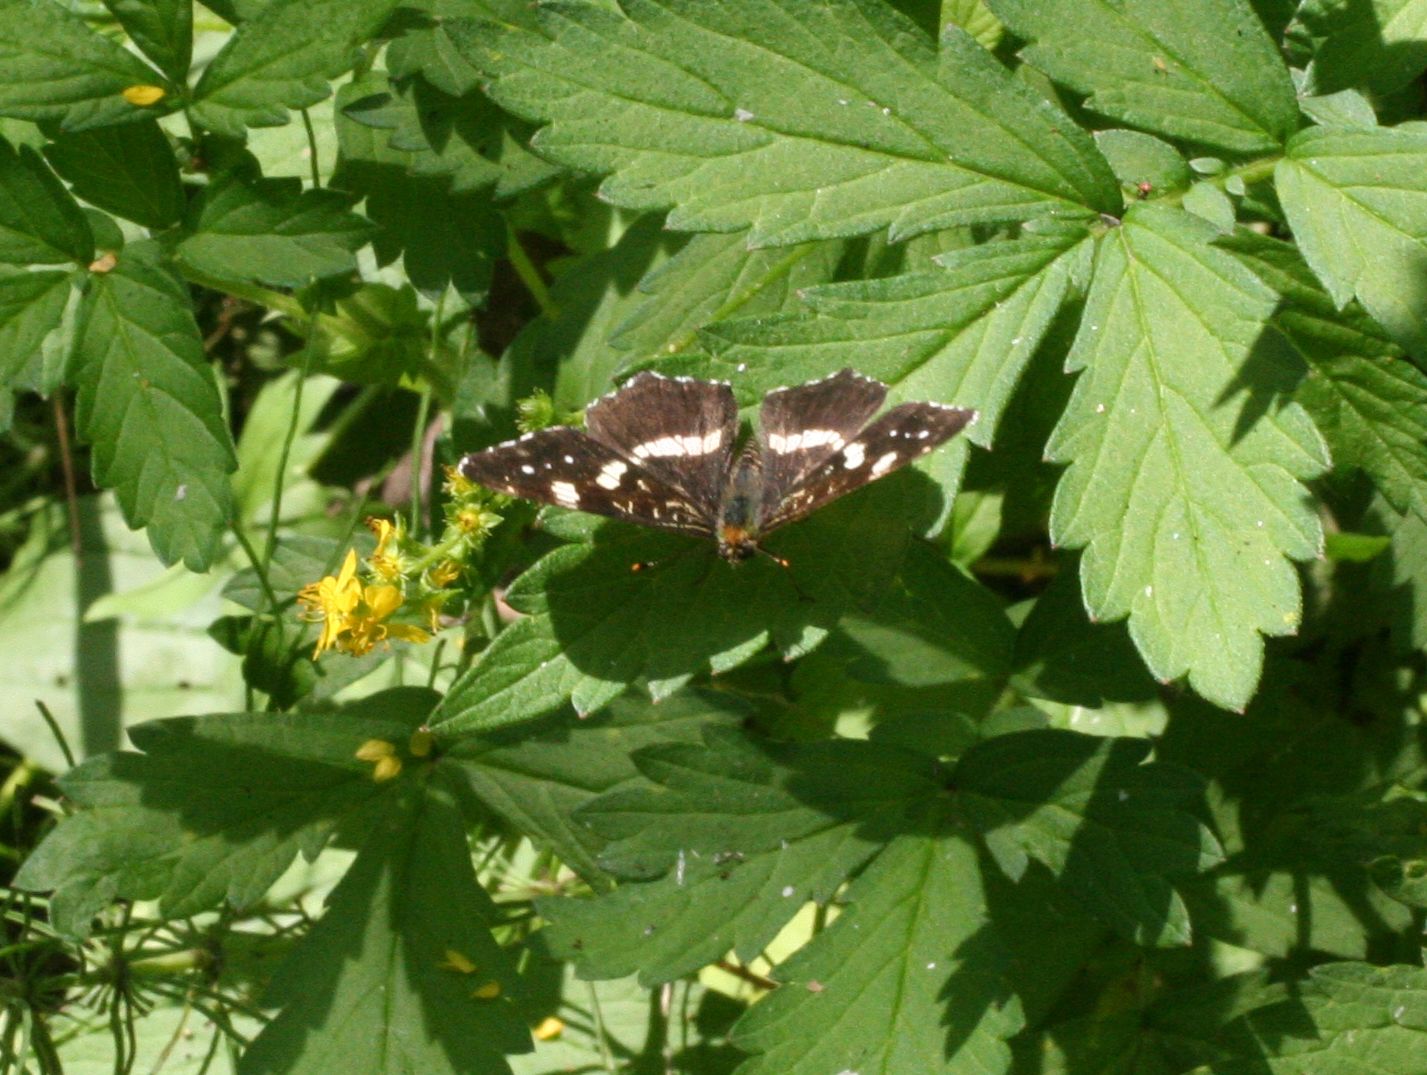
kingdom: Animalia
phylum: Arthropoda
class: Insecta
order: Lepidoptera
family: Nymphalidae
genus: Araschnia
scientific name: Araschnia levana
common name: Map butterfly
